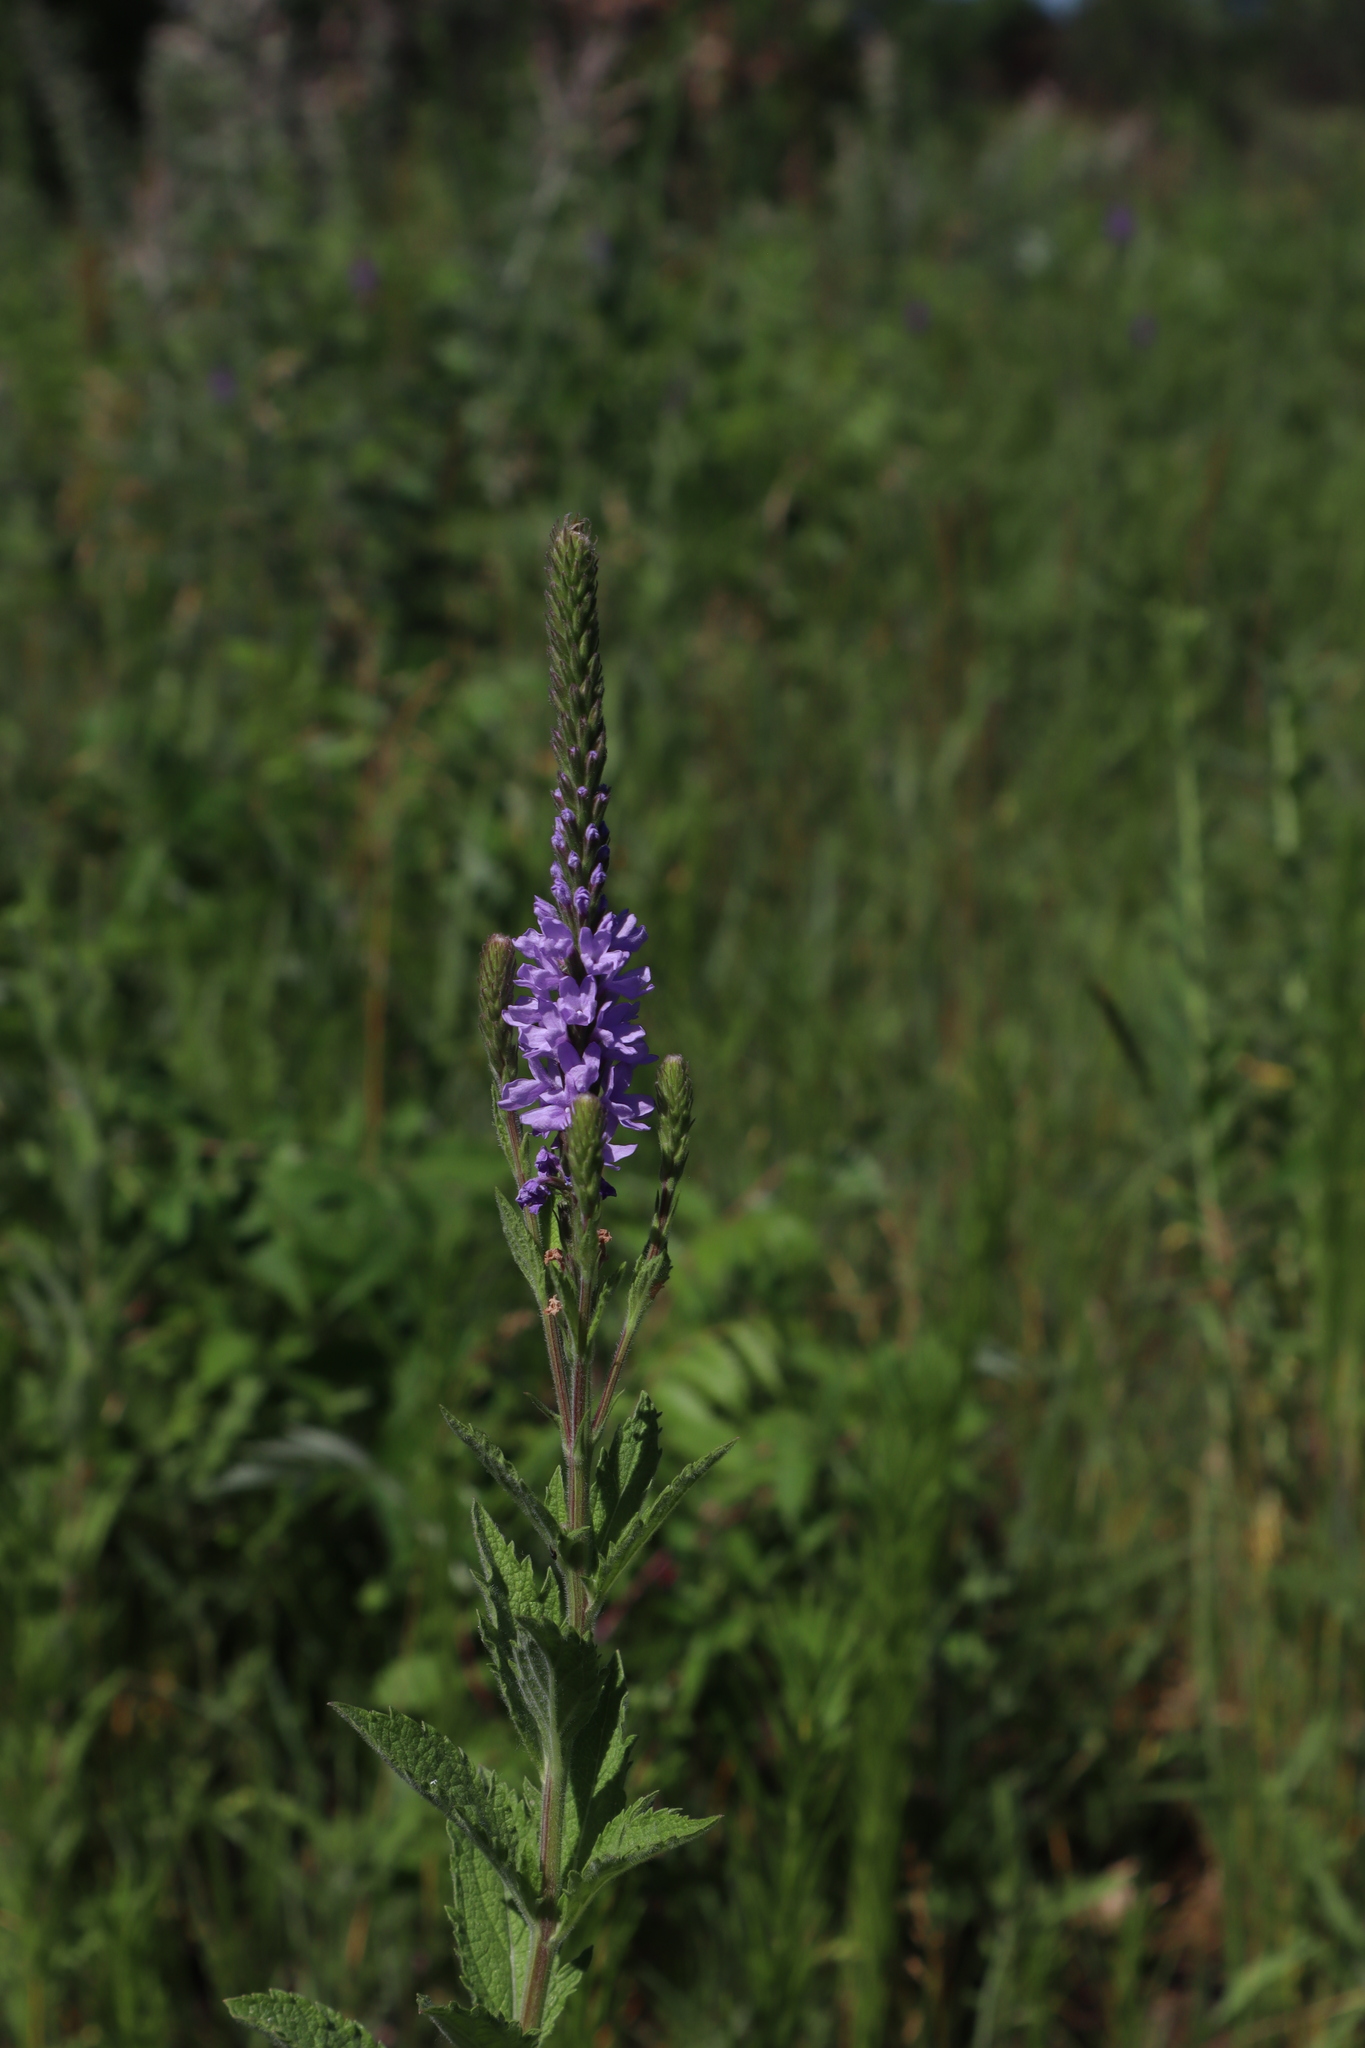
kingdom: Plantae
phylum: Tracheophyta
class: Magnoliopsida
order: Lamiales
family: Verbenaceae
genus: Verbena
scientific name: Verbena stricta
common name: Hoary vervain
